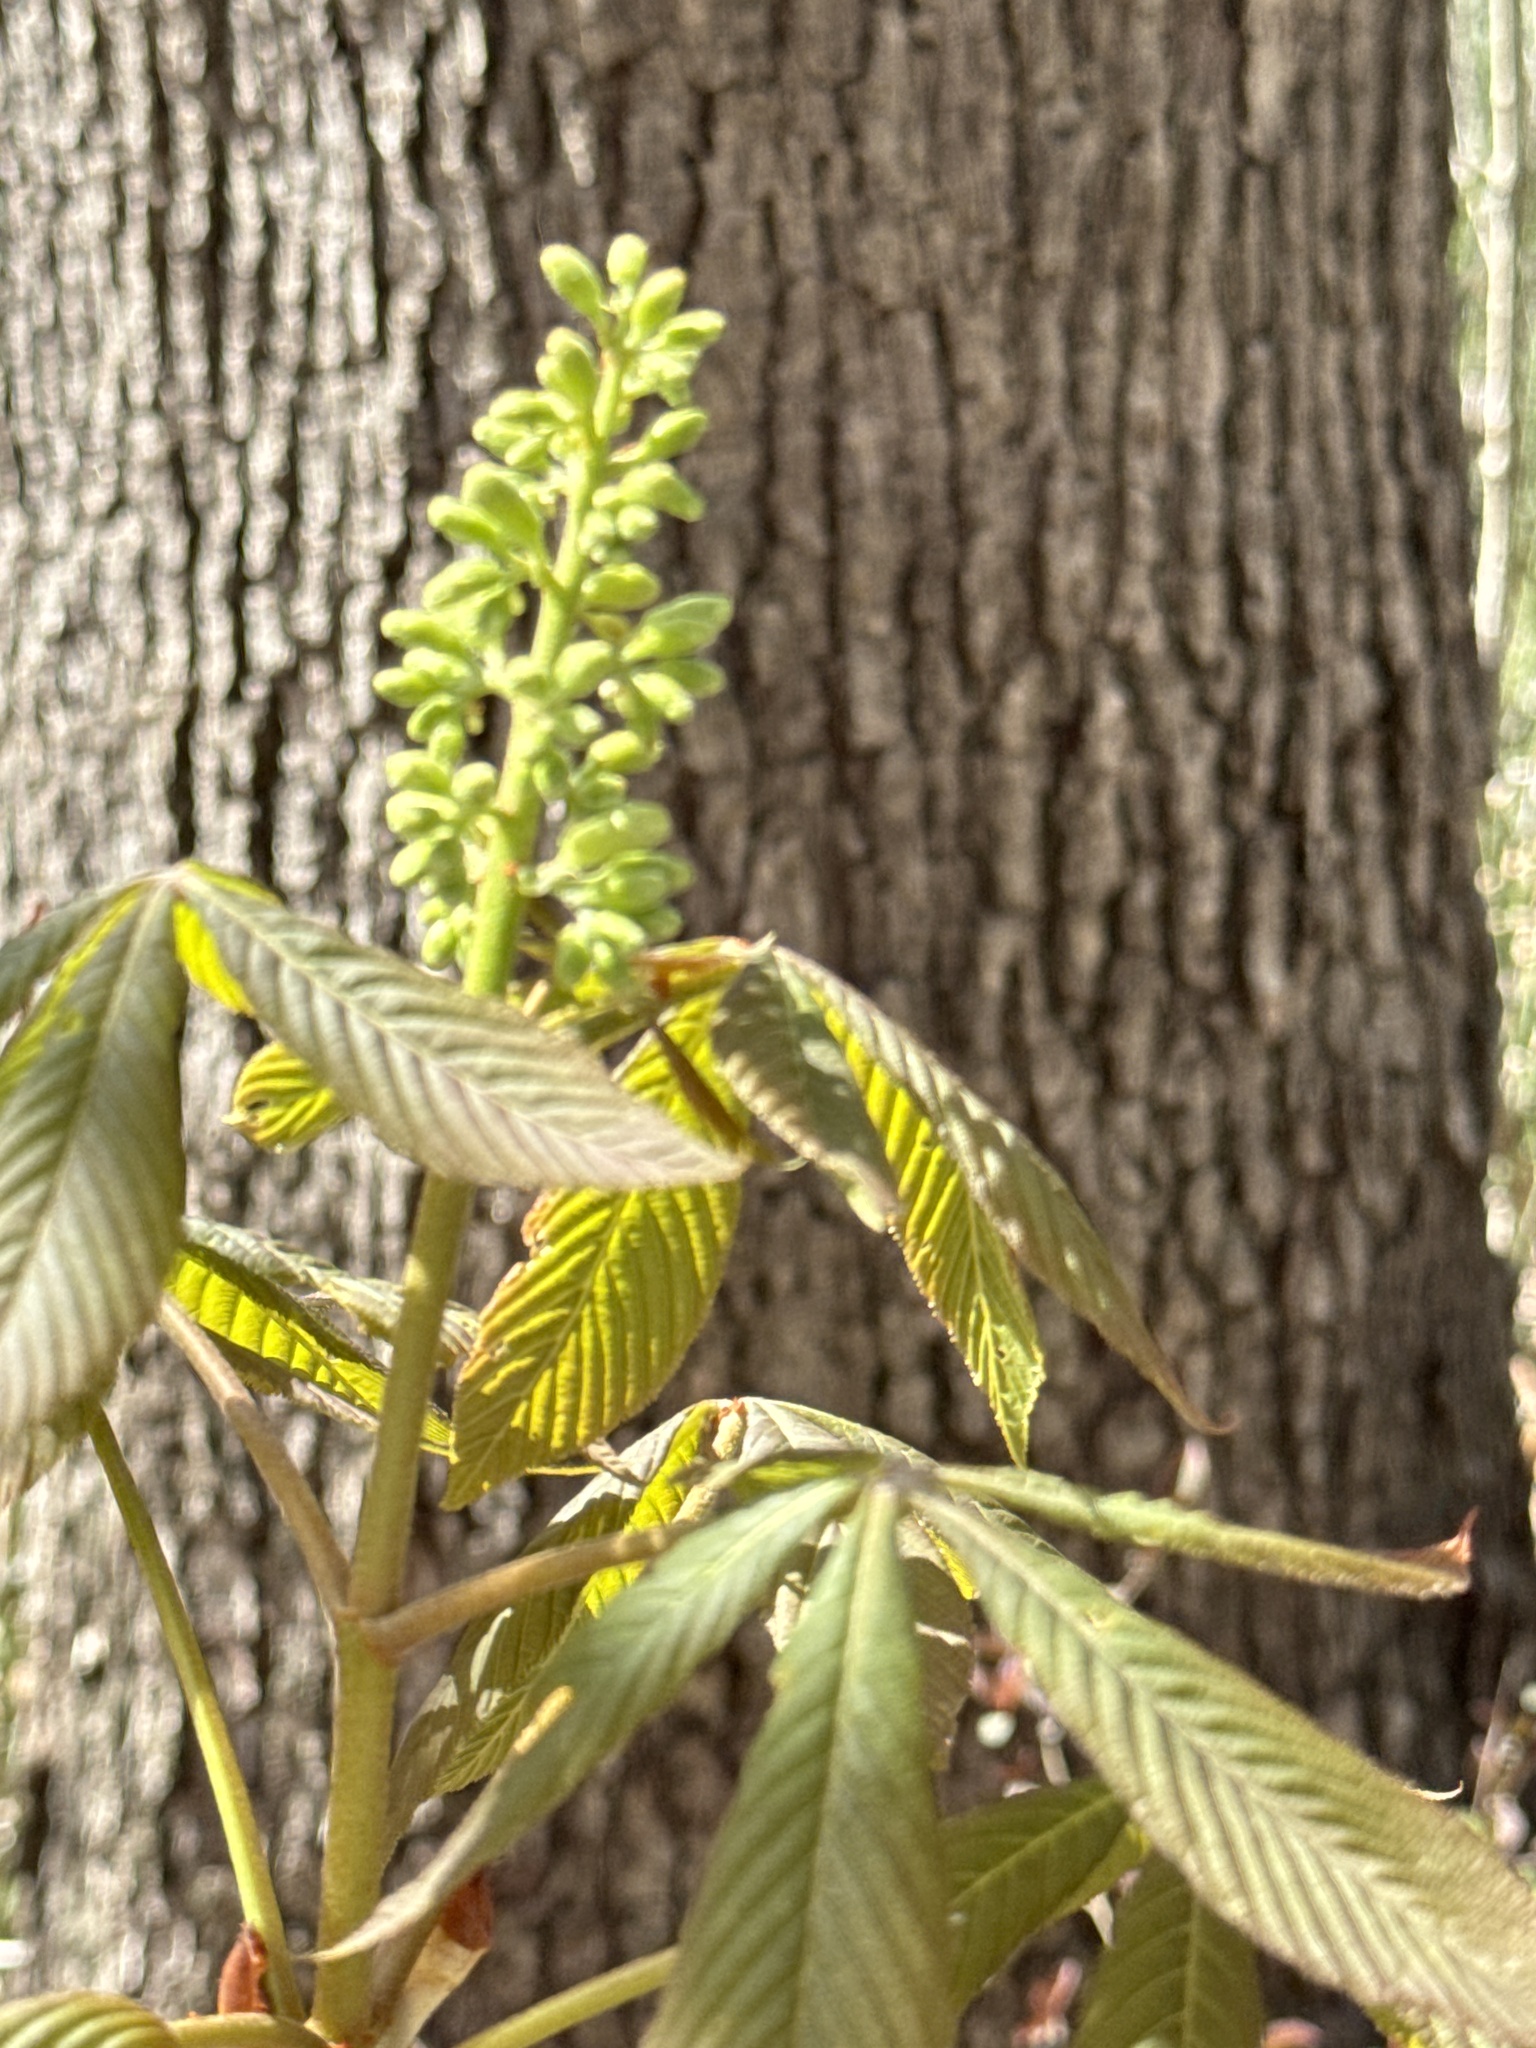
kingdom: Plantae
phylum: Tracheophyta
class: Magnoliopsida
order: Sapindales
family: Sapindaceae
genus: Aesculus
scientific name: Aesculus glabra
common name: Ohio buckeye
